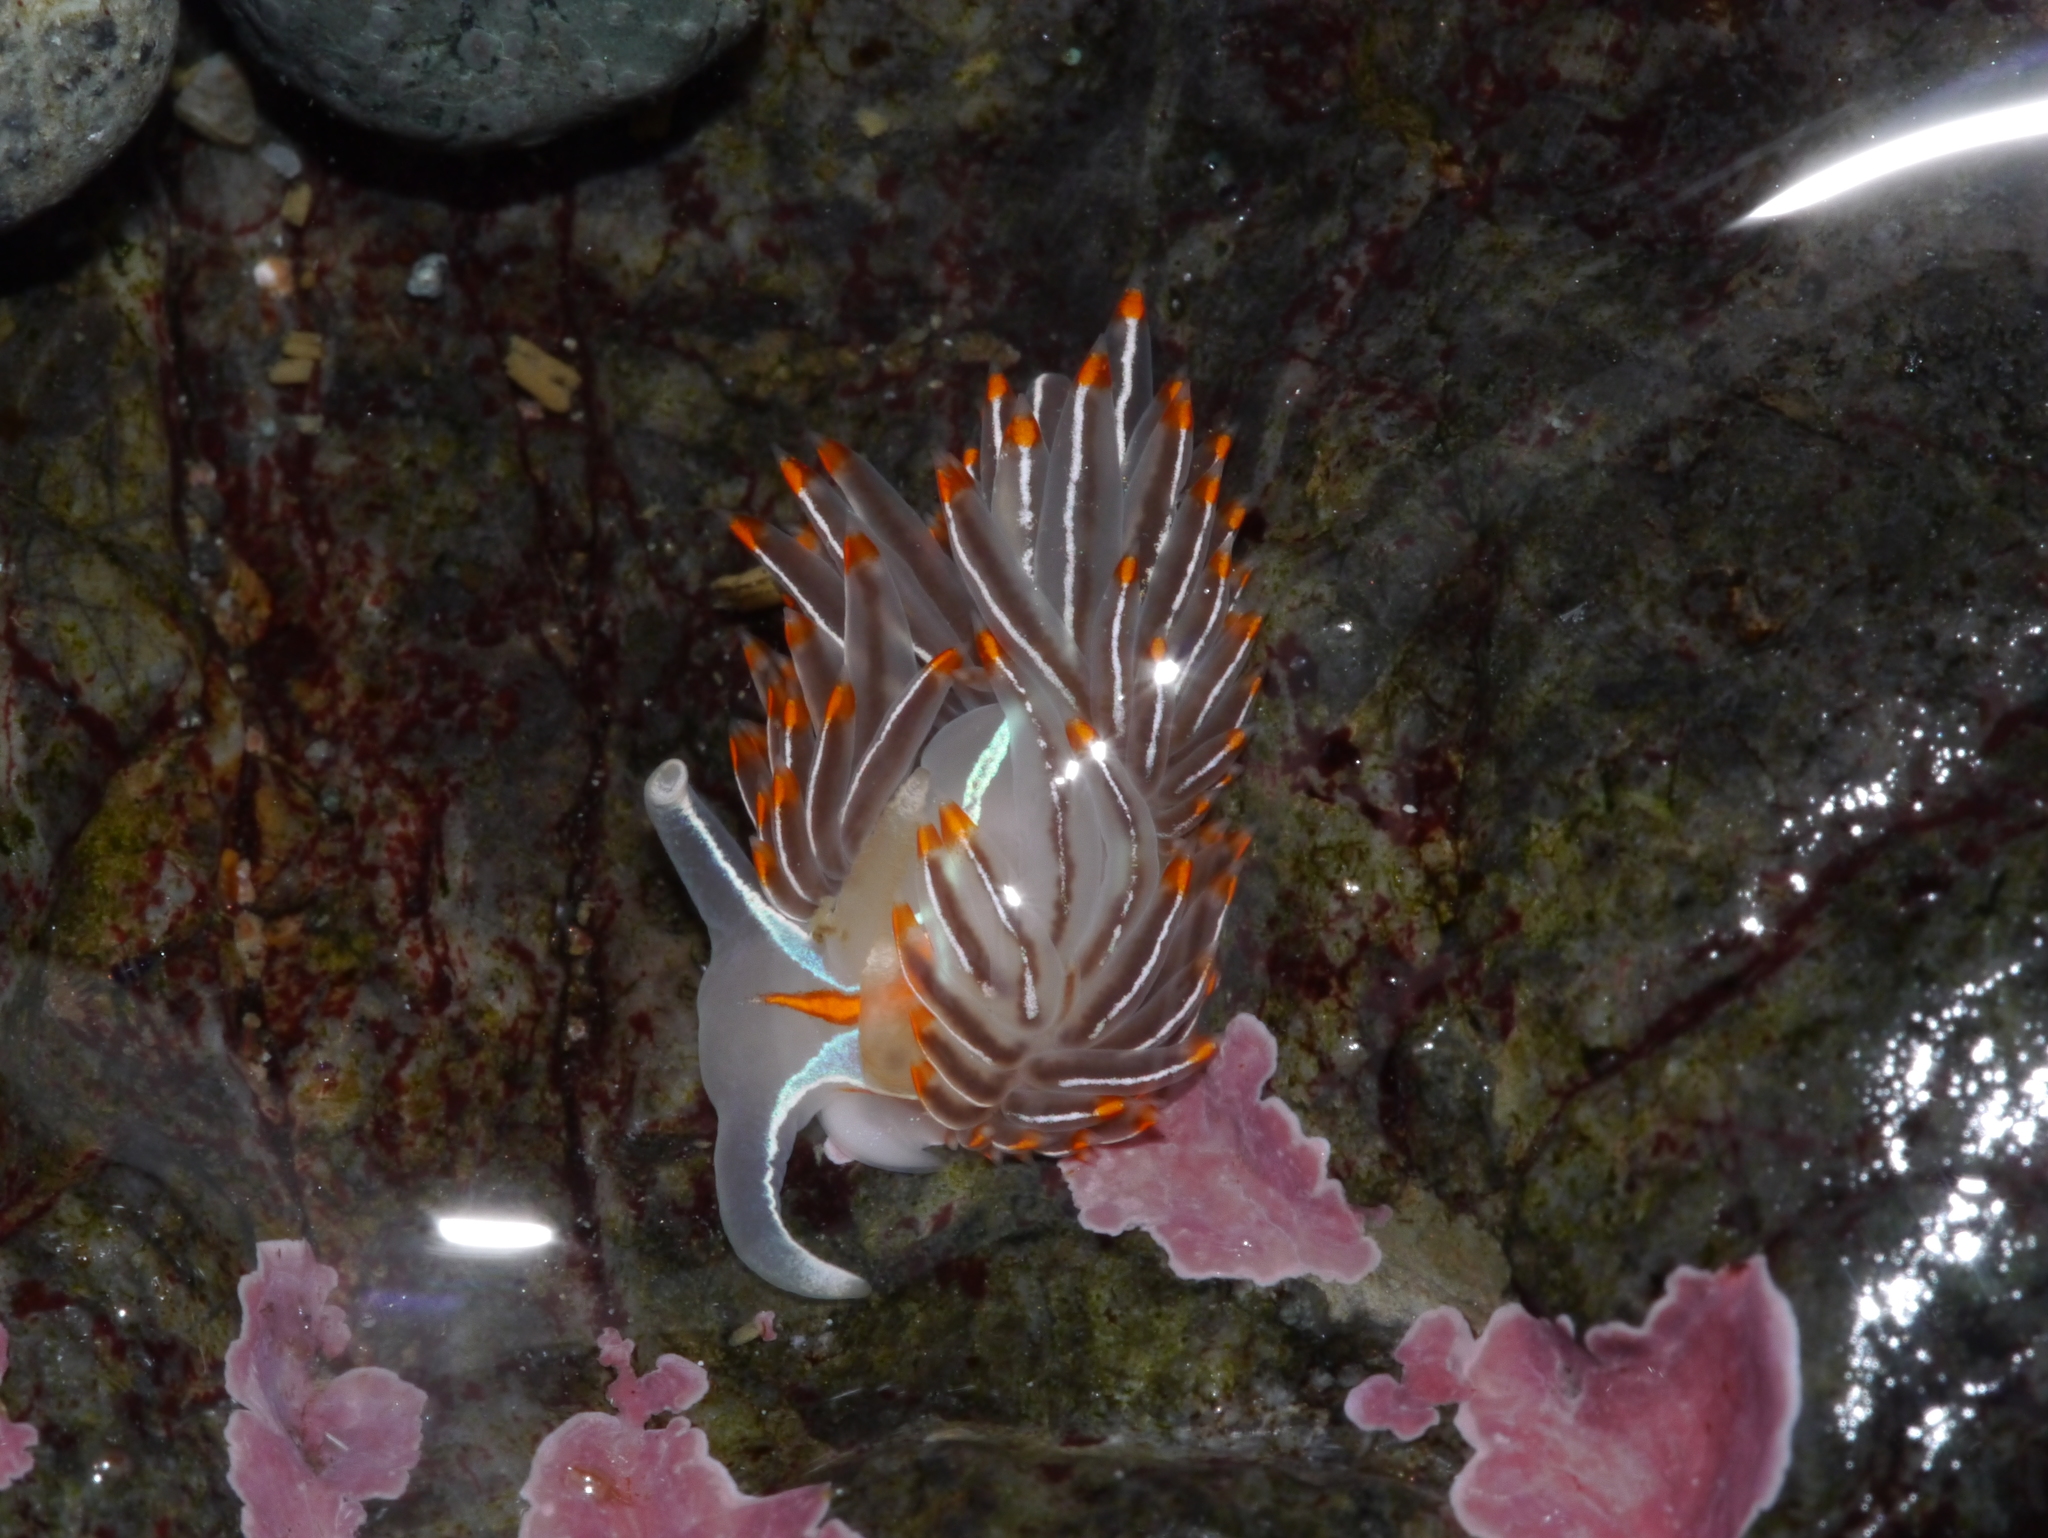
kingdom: Animalia
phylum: Mollusca
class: Gastropoda
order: Nudibranchia
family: Myrrhinidae
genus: Hermissenda
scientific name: Hermissenda crassicornis
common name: Hermissenda
